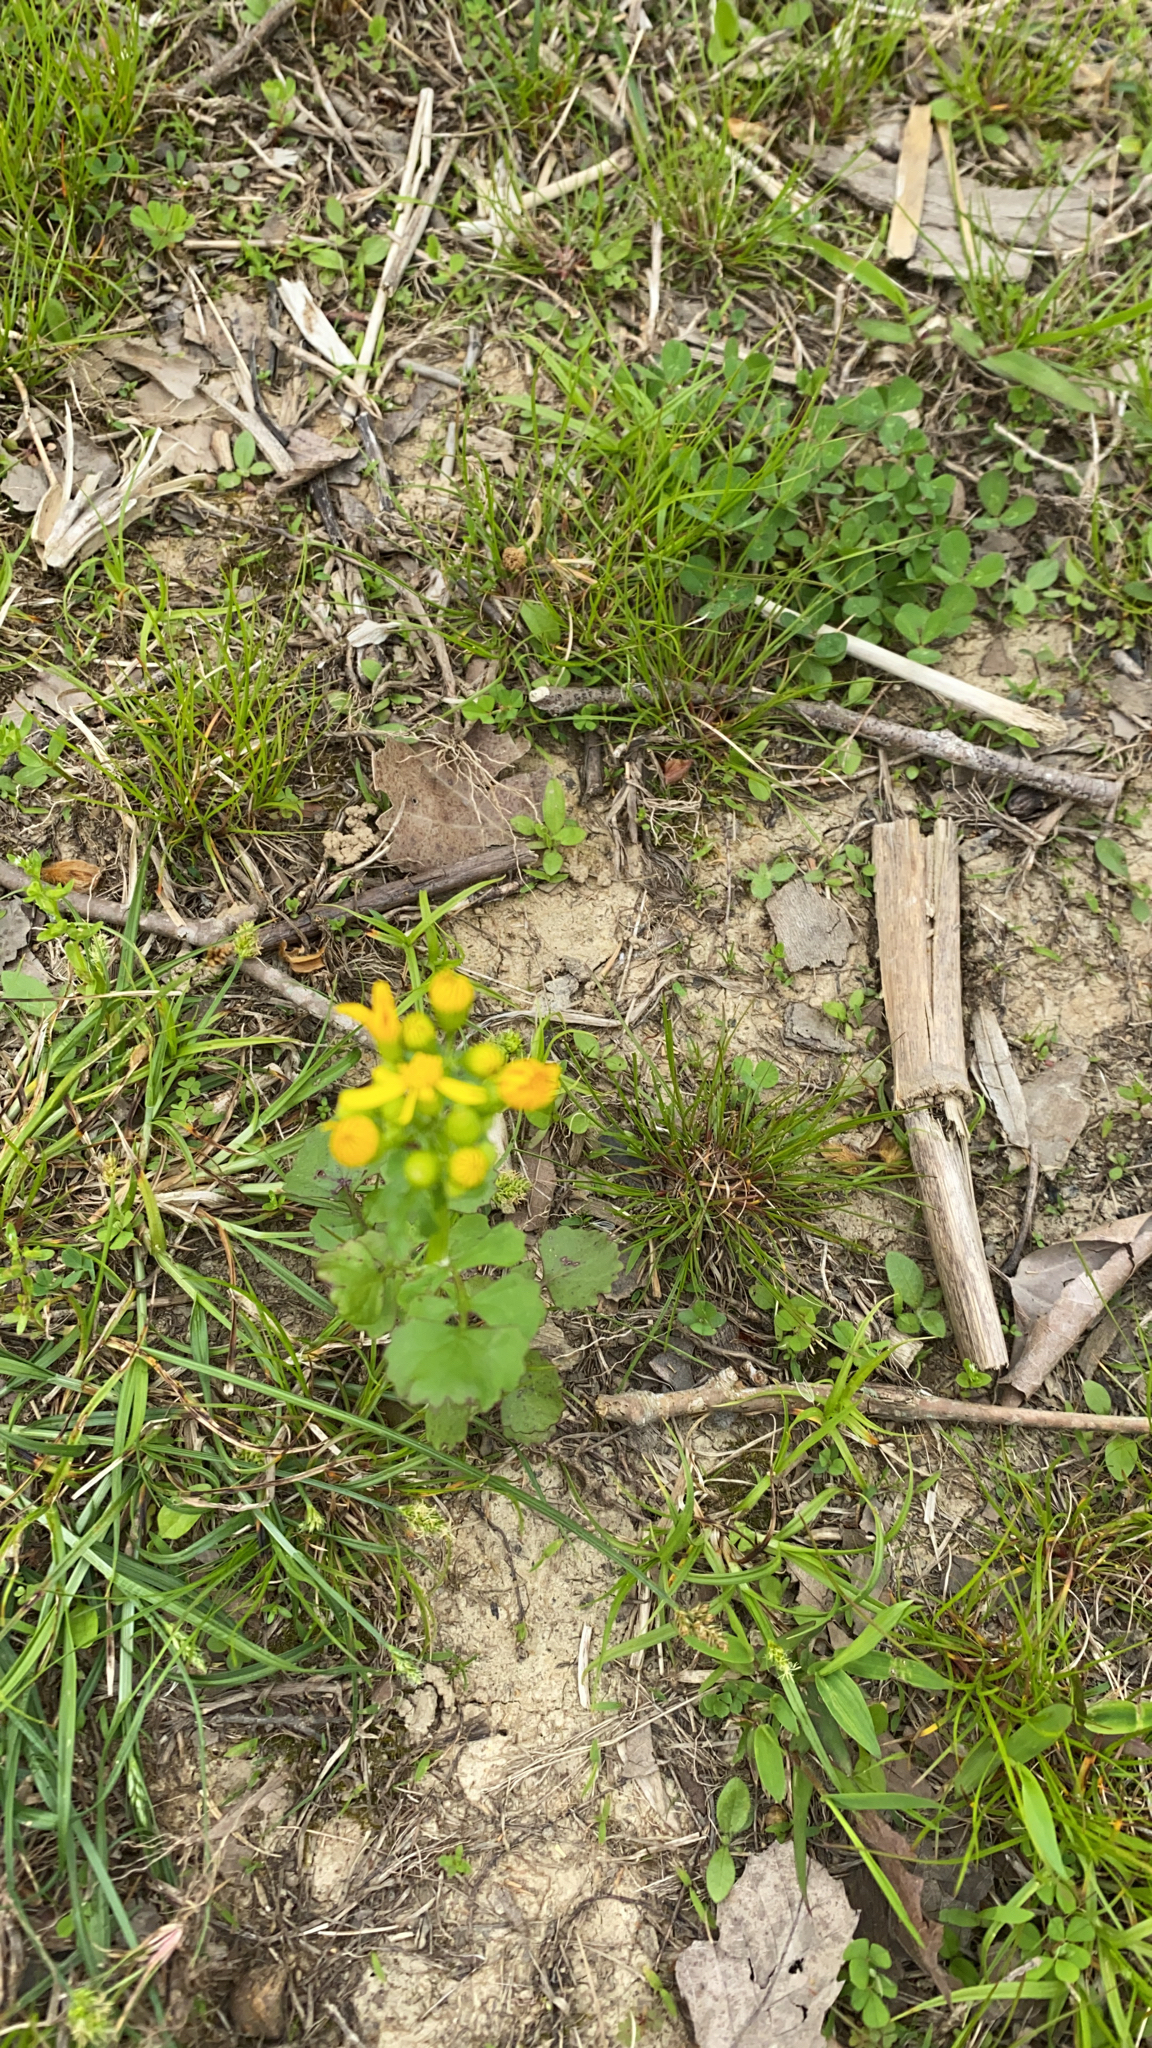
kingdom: Plantae
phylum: Tracheophyta
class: Magnoliopsida
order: Asterales
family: Asteraceae
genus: Packera
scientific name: Packera glabella
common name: Butterweed
